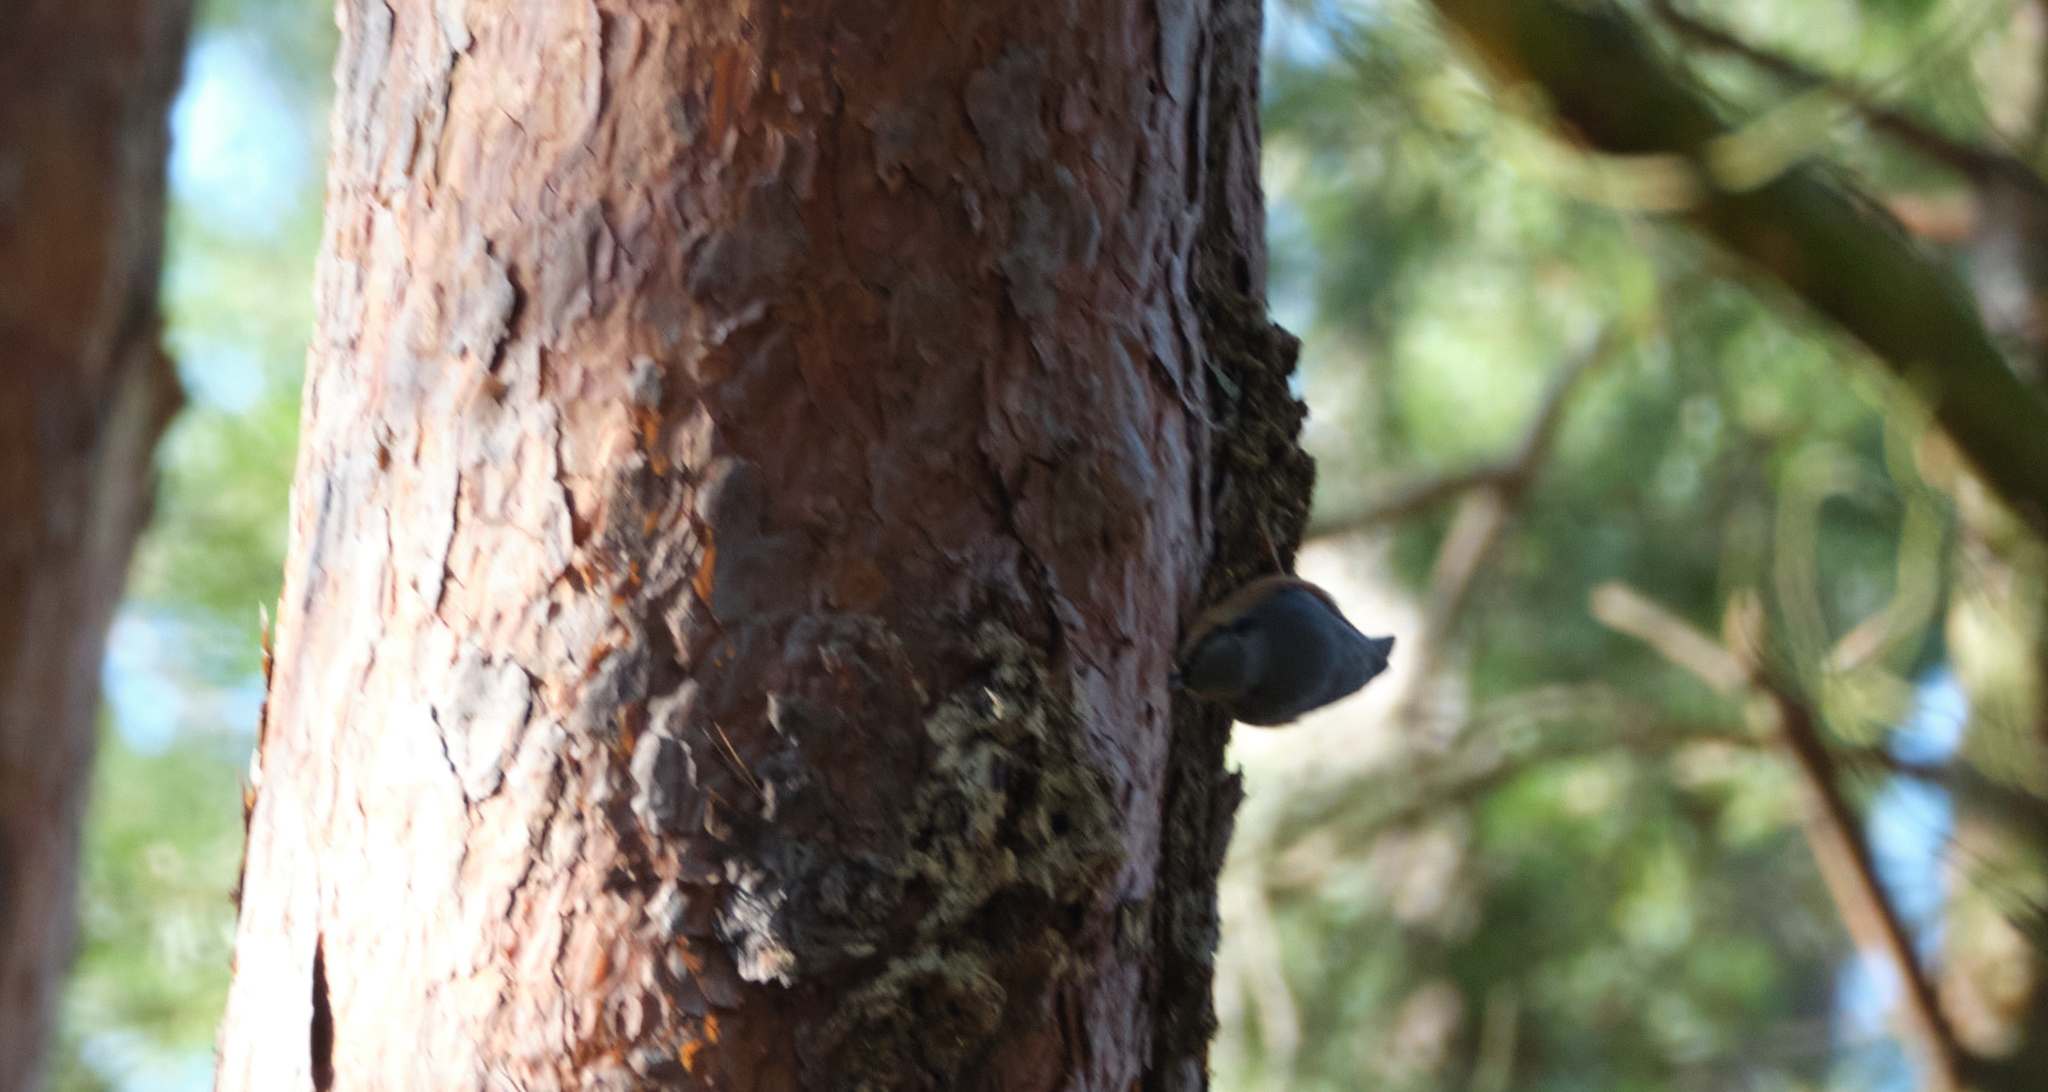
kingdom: Animalia
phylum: Chordata
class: Aves
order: Passeriformes
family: Sittidae
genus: Sitta
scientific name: Sitta europaea
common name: Eurasian nuthatch
